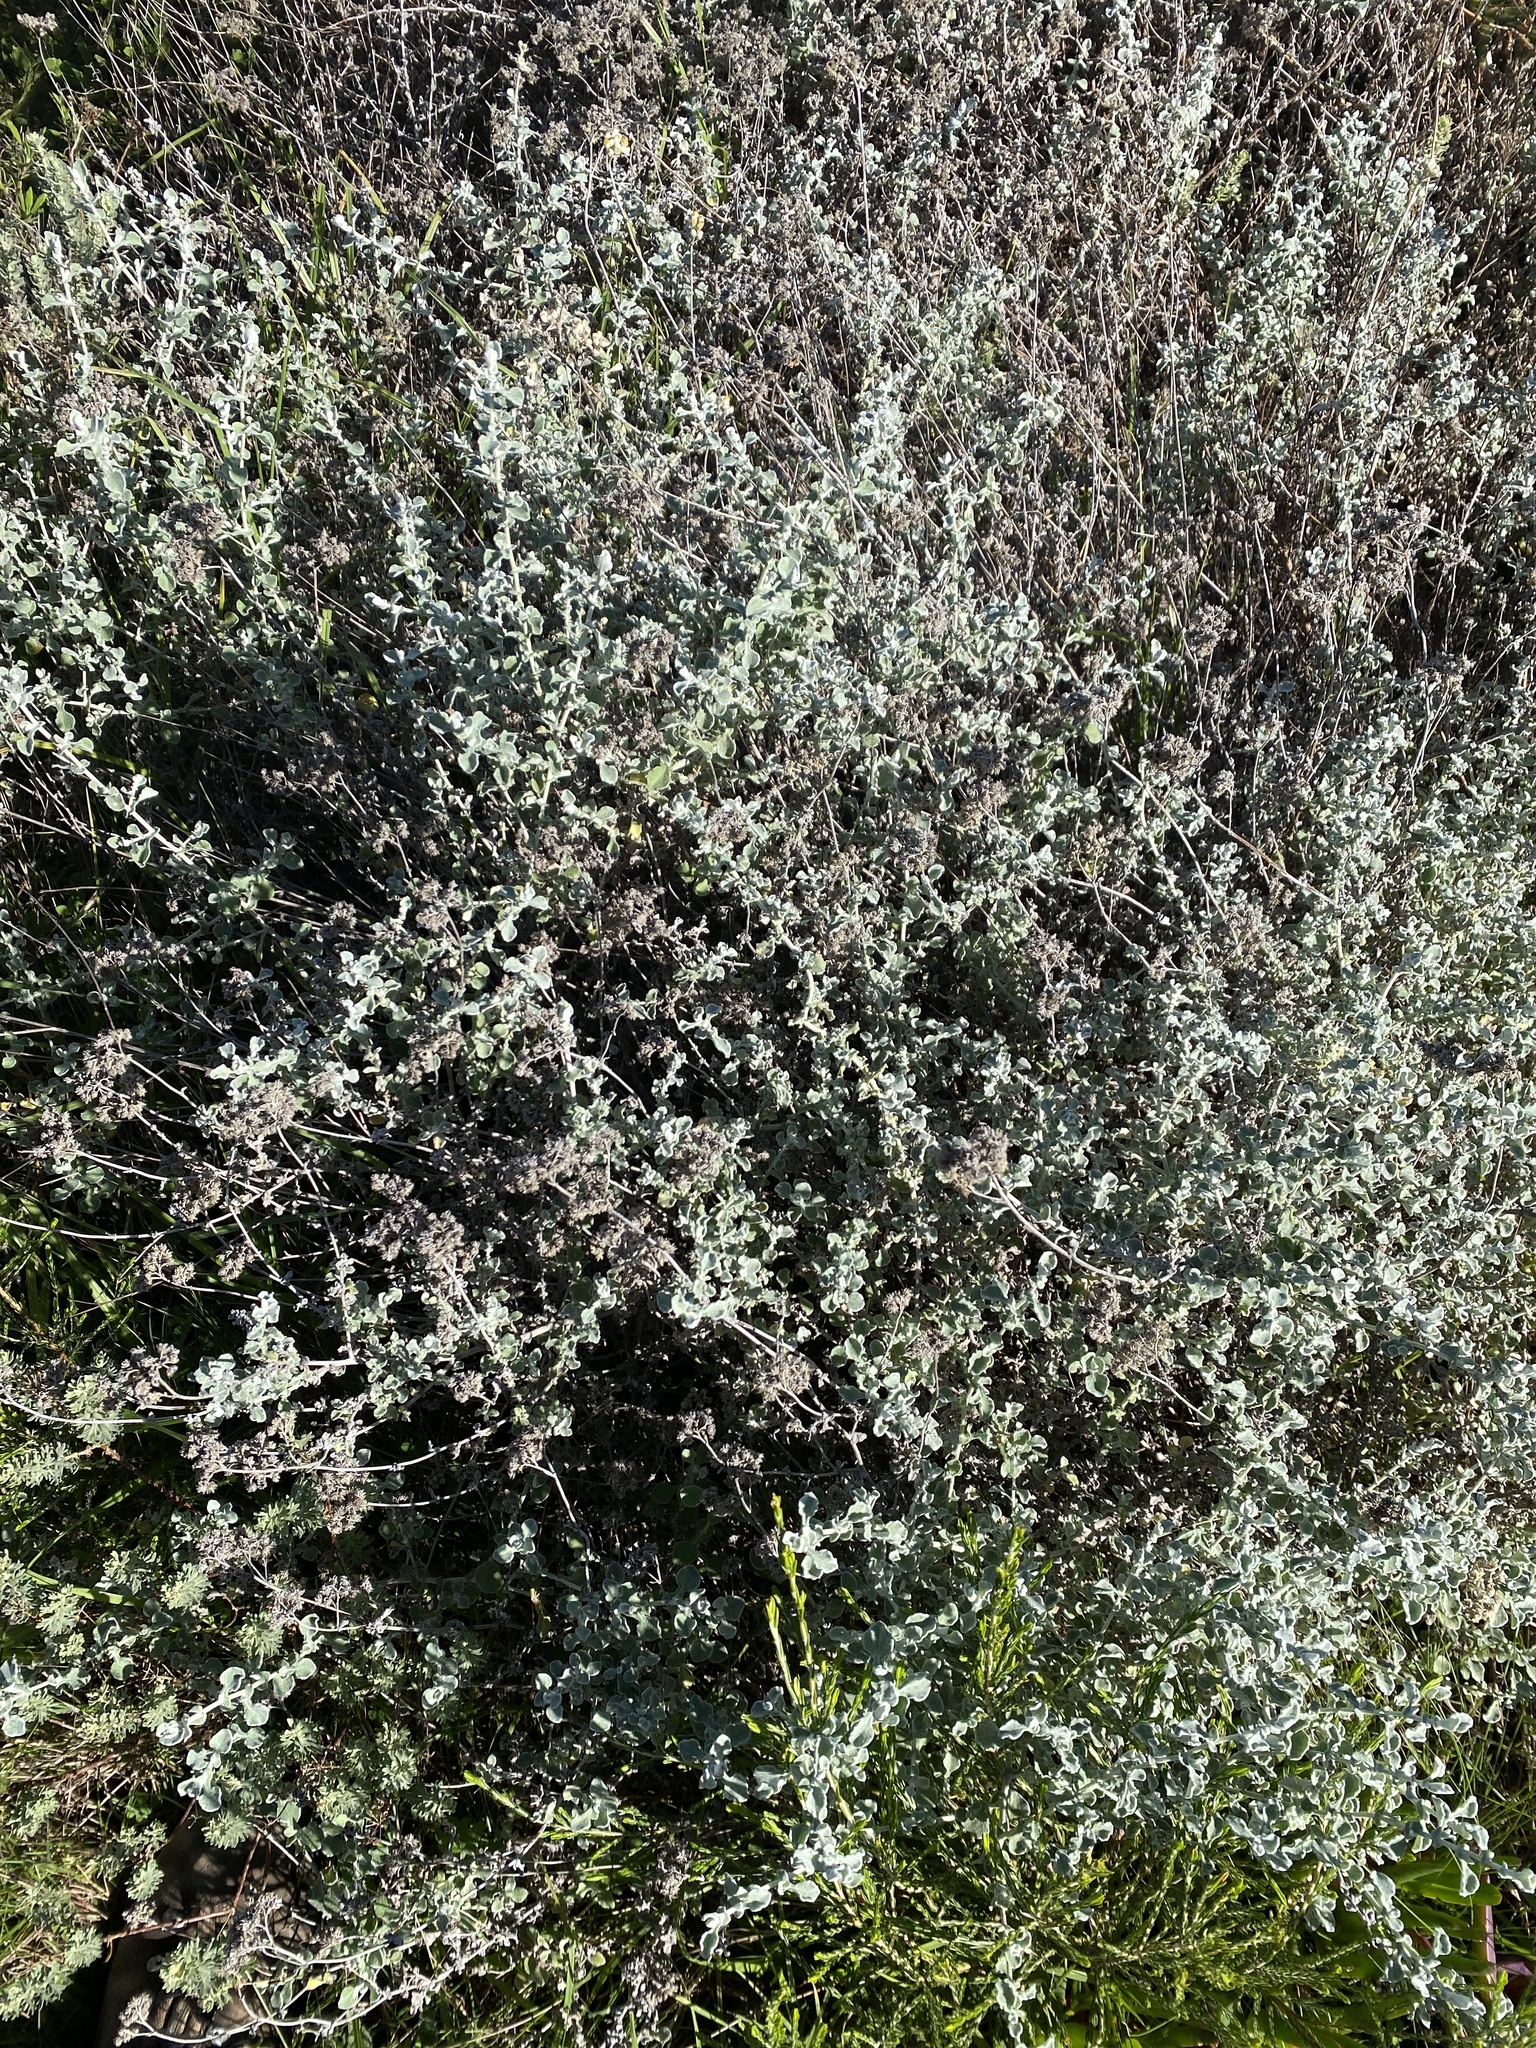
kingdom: Plantae
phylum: Tracheophyta
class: Magnoliopsida
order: Asterales
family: Asteraceae
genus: Helichrysum
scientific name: Helichrysum patulum
